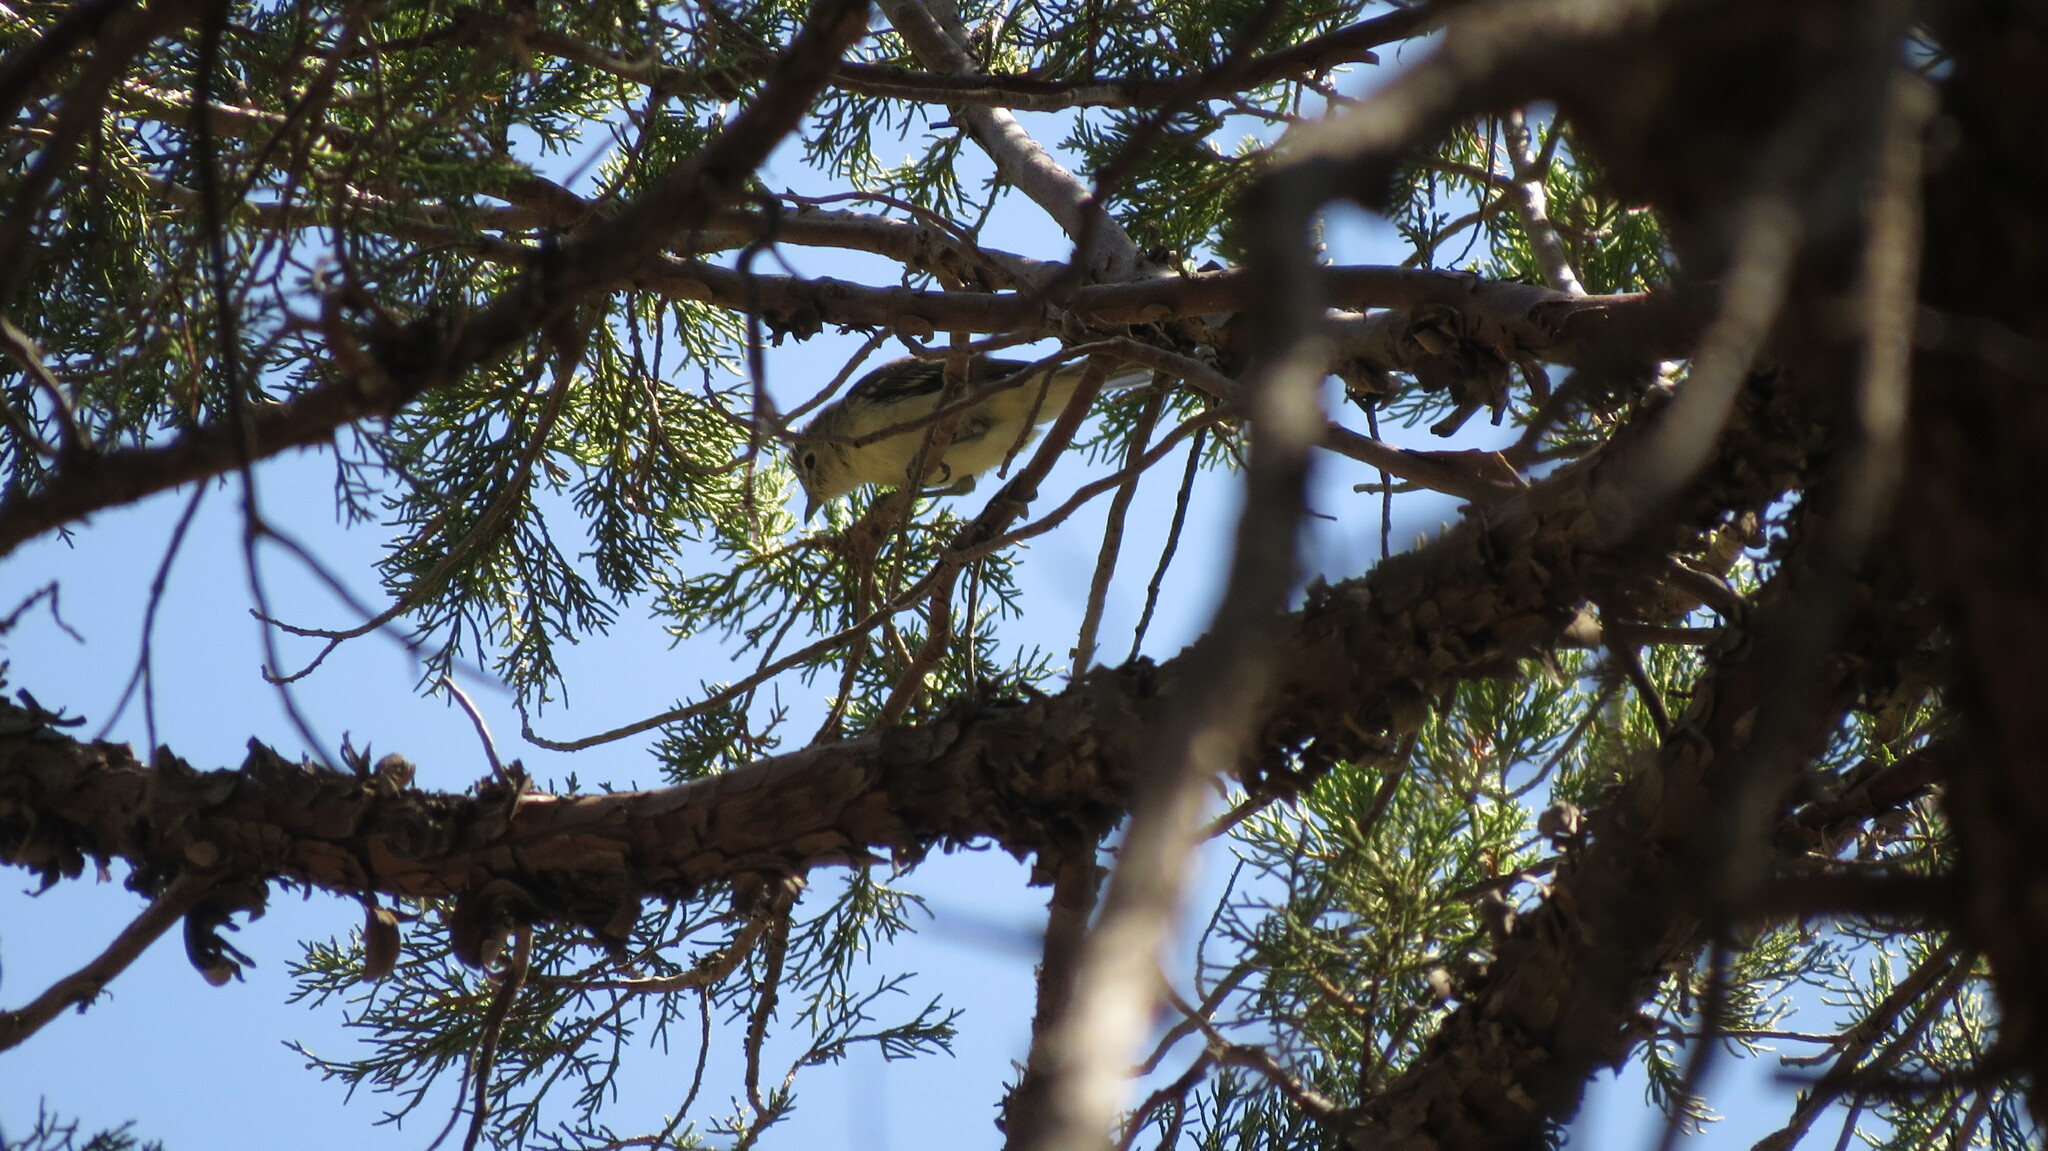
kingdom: Animalia
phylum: Chordata
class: Aves
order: Passeriformes
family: Vireonidae
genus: Vireo
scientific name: Vireo plumbeus
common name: Plumbeous vireo
